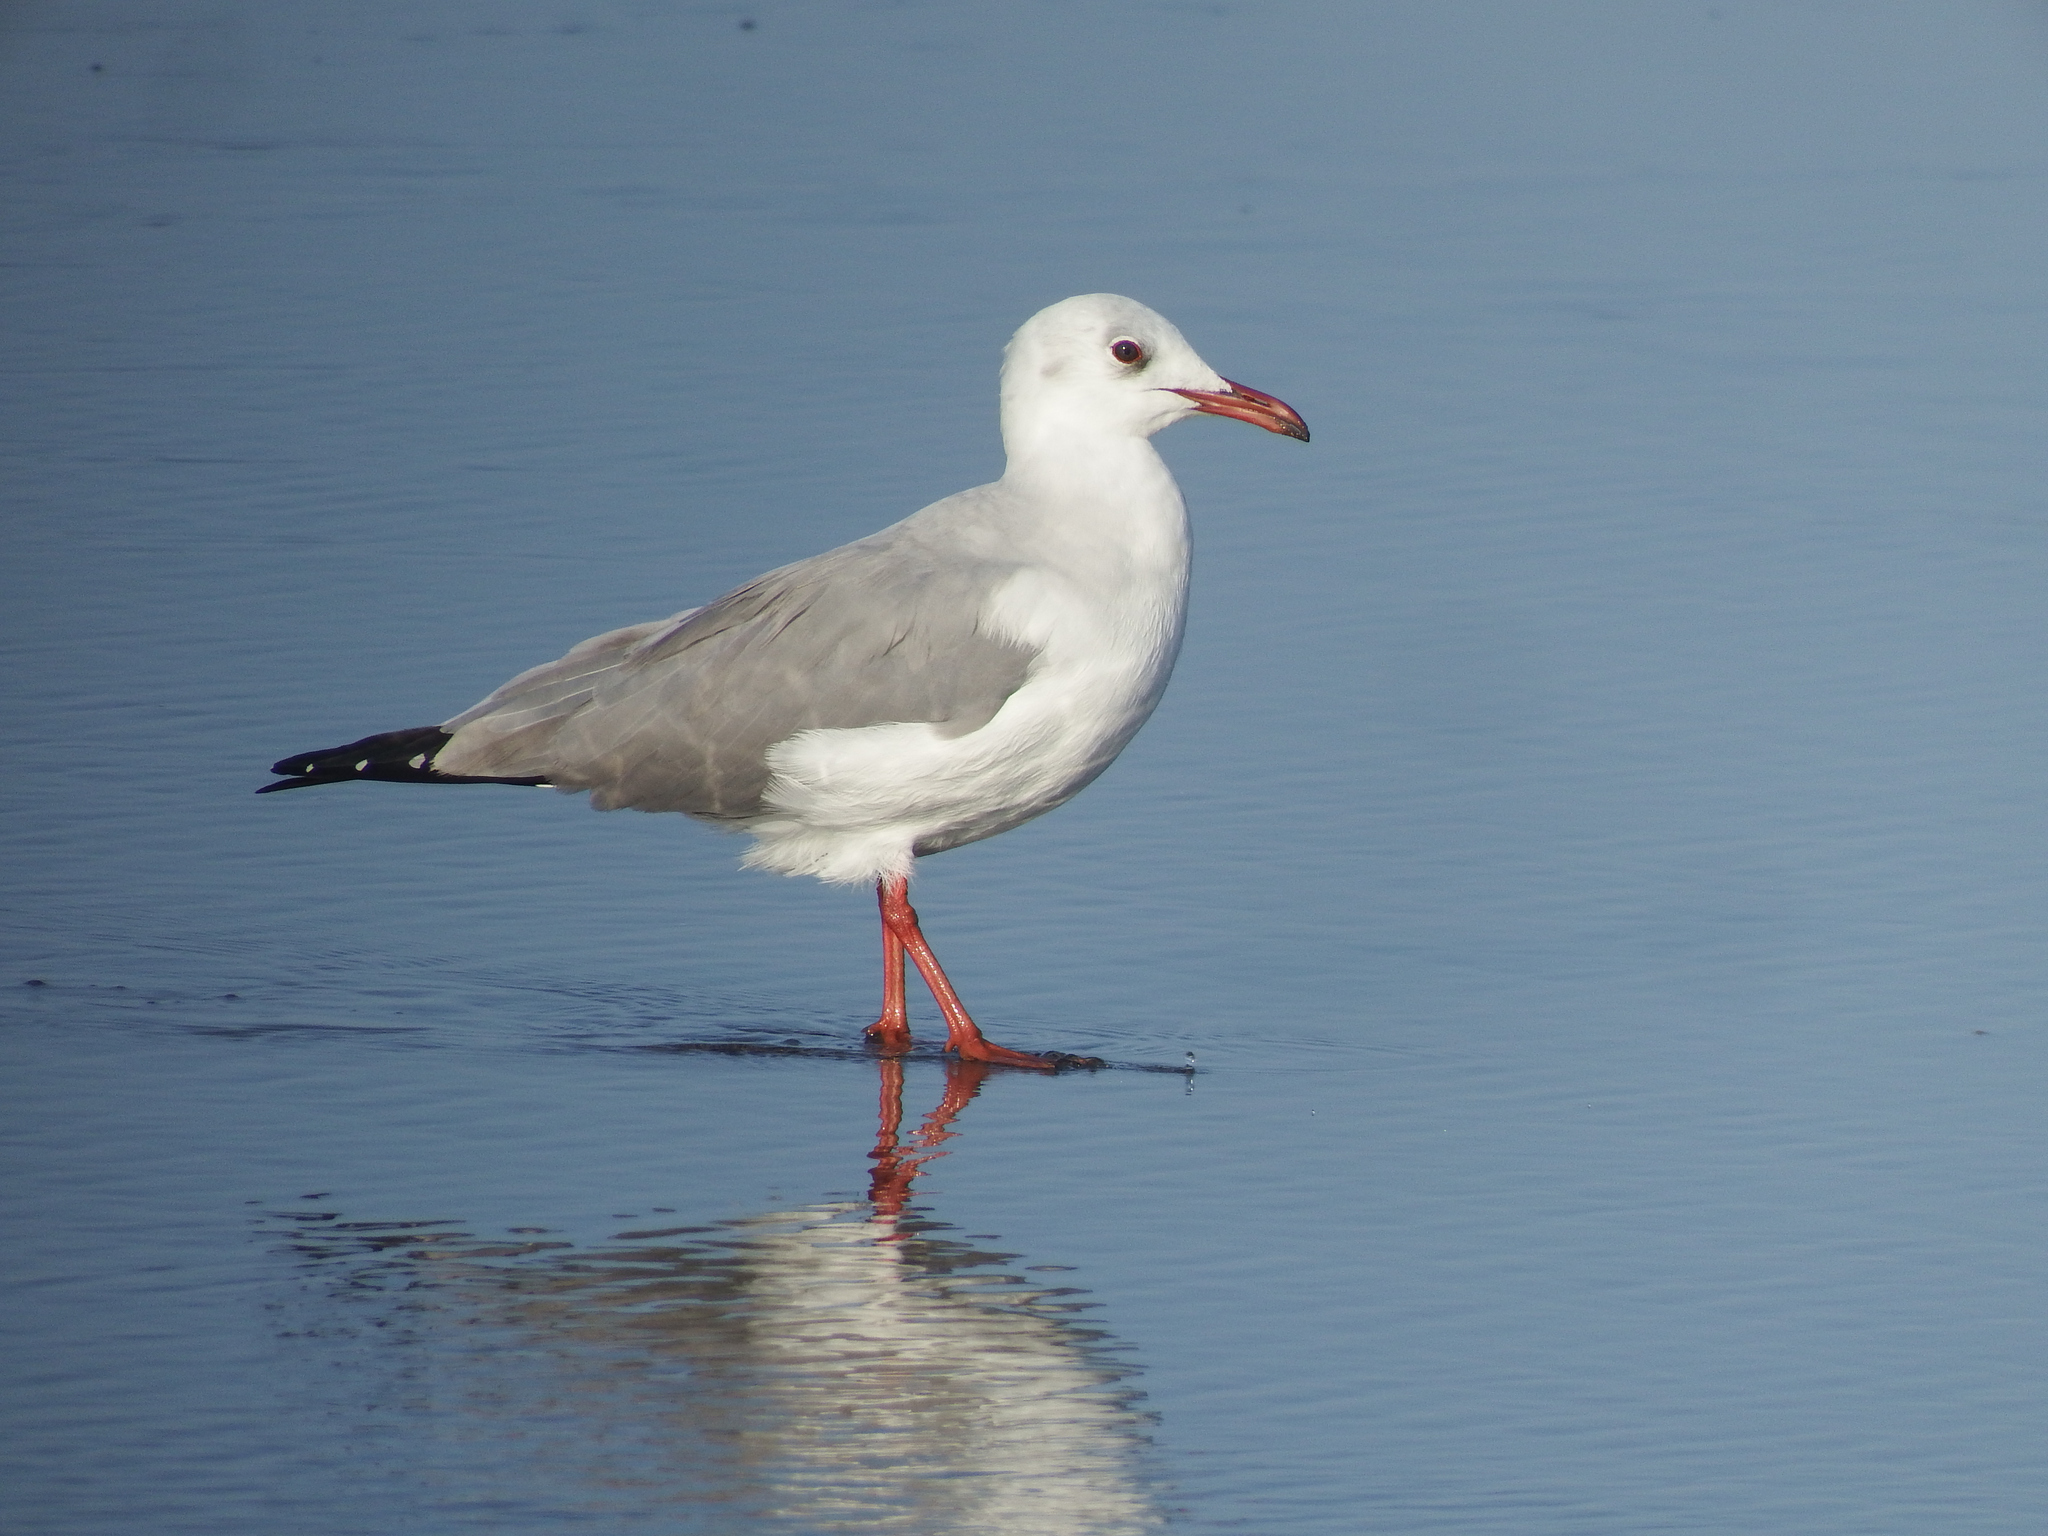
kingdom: Animalia
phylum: Chordata
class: Aves
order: Charadriiformes
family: Laridae
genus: Chroicocephalus
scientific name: Chroicocephalus cirrocephalus
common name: Grey-headed gull
